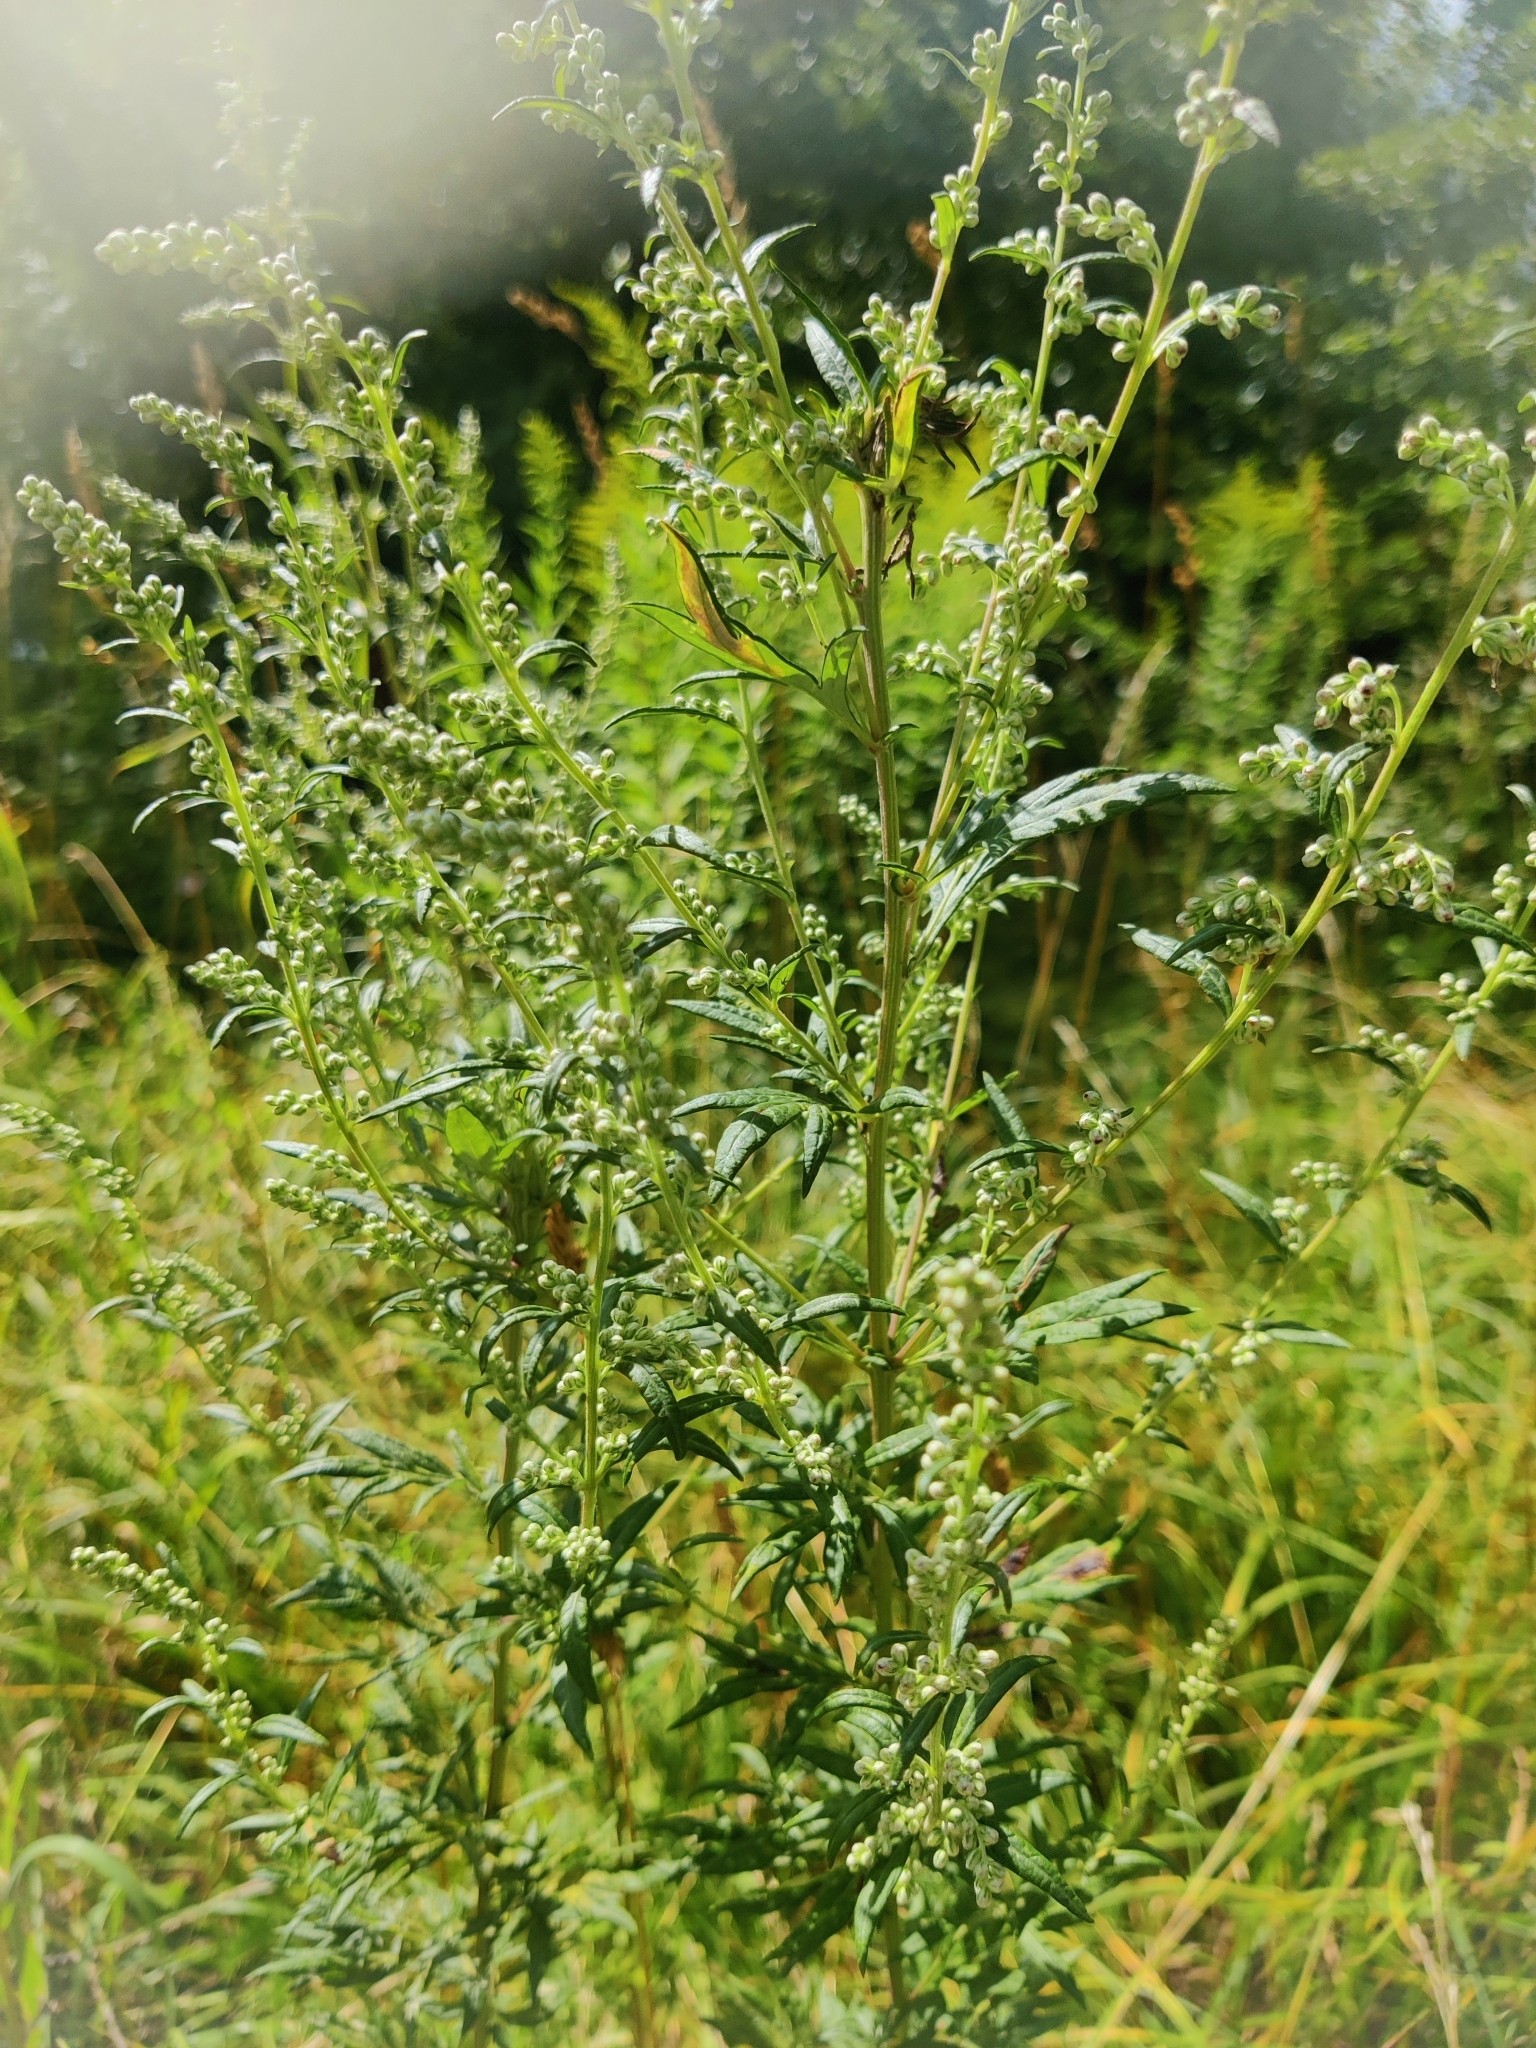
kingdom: Plantae
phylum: Tracheophyta
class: Magnoliopsida
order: Asterales
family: Asteraceae
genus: Artemisia
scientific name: Artemisia vulgaris
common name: Mugwort
